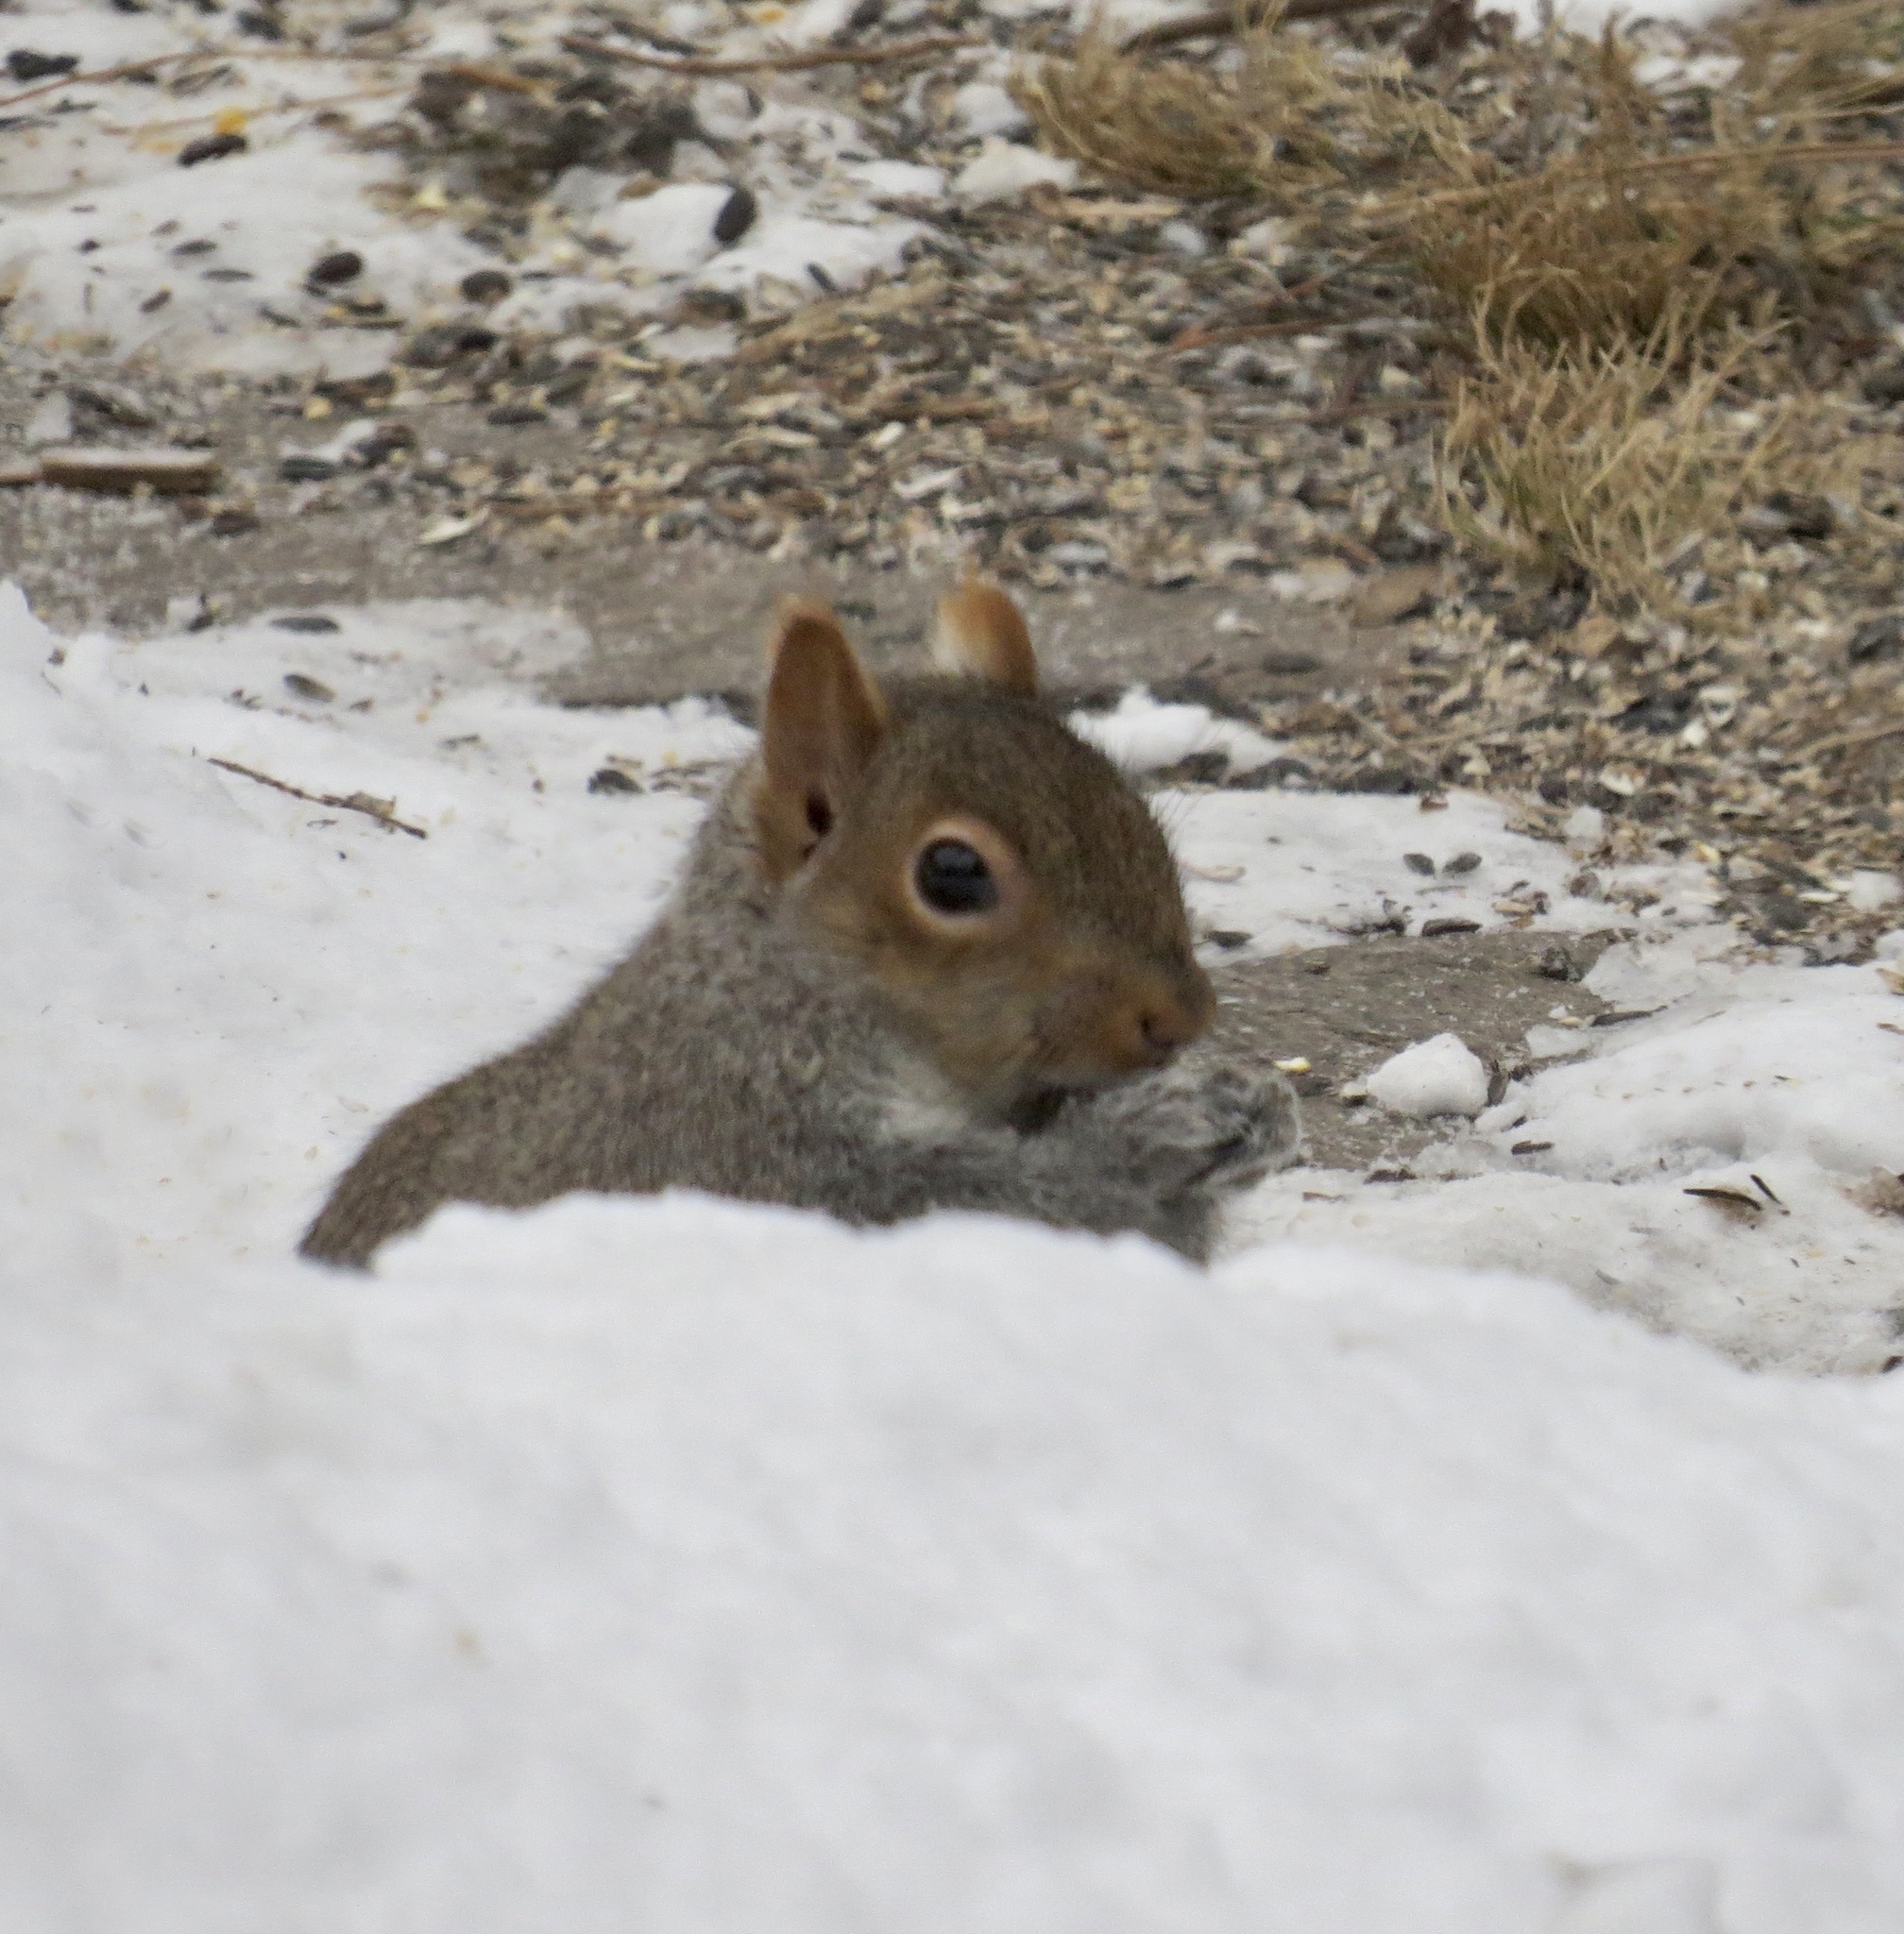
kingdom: Animalia
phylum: Chordata
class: Mammalia
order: Rodentia
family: Sciuridae
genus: Sciurus
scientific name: Sciurus carolinensis
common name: Eastern gray squirrel
